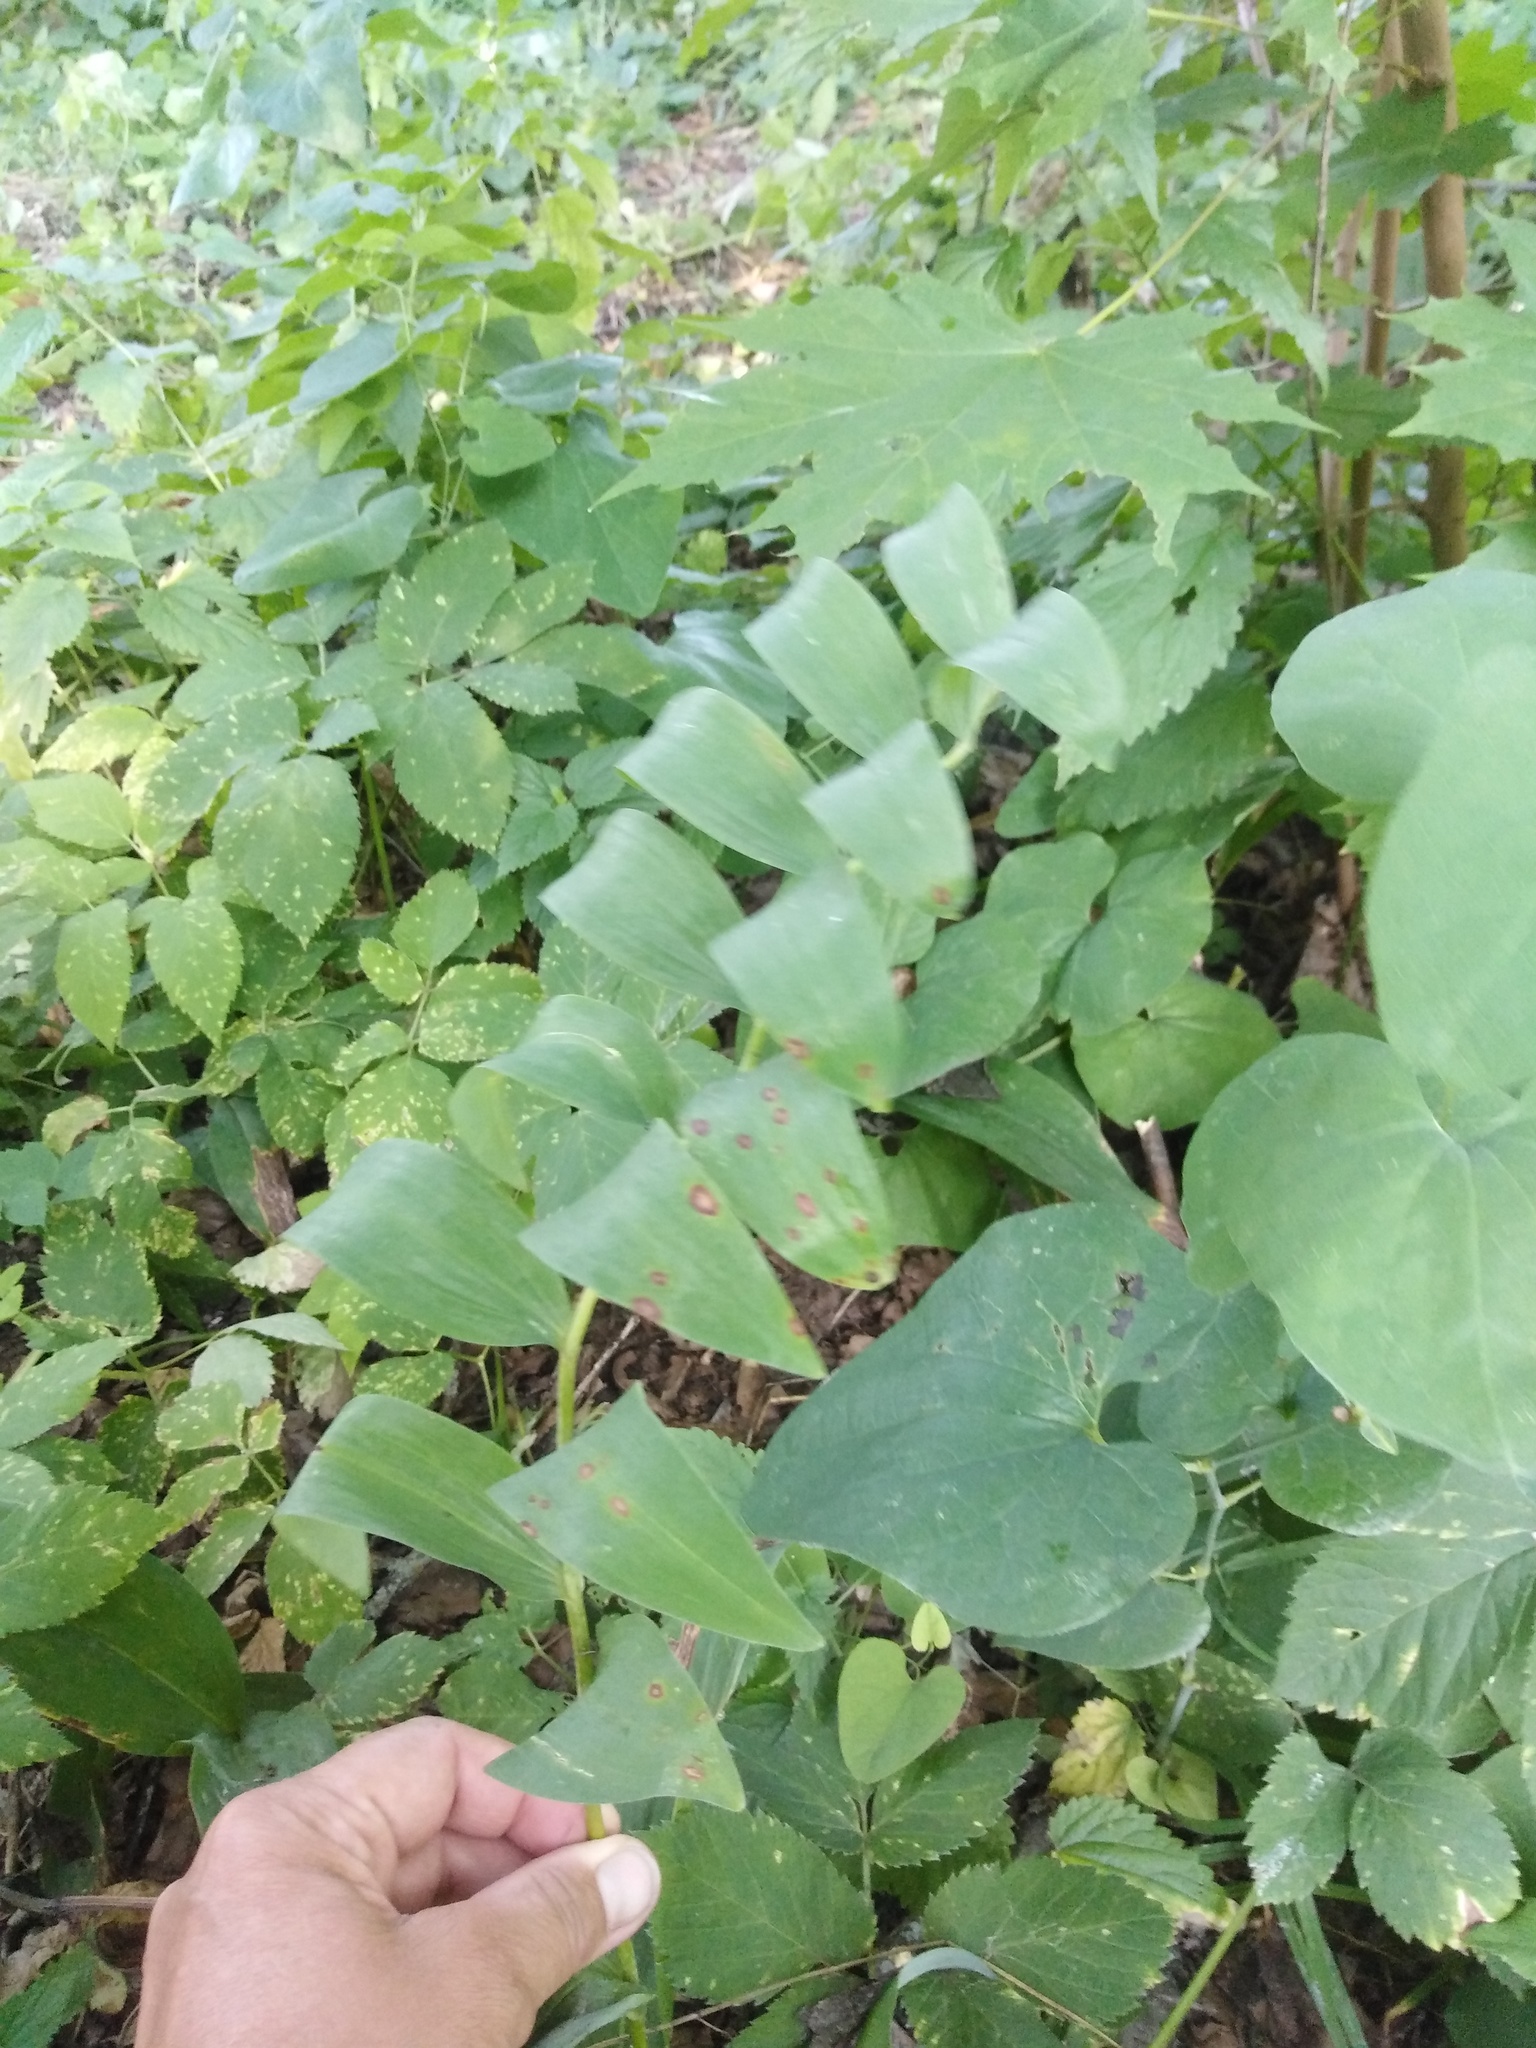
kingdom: Plantae
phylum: Tracheophyta
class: Liliopsida
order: Asparagales
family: Asparagaceae
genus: Polygonatum
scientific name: Polygonatum multiflorum
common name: Solomon's-seal
